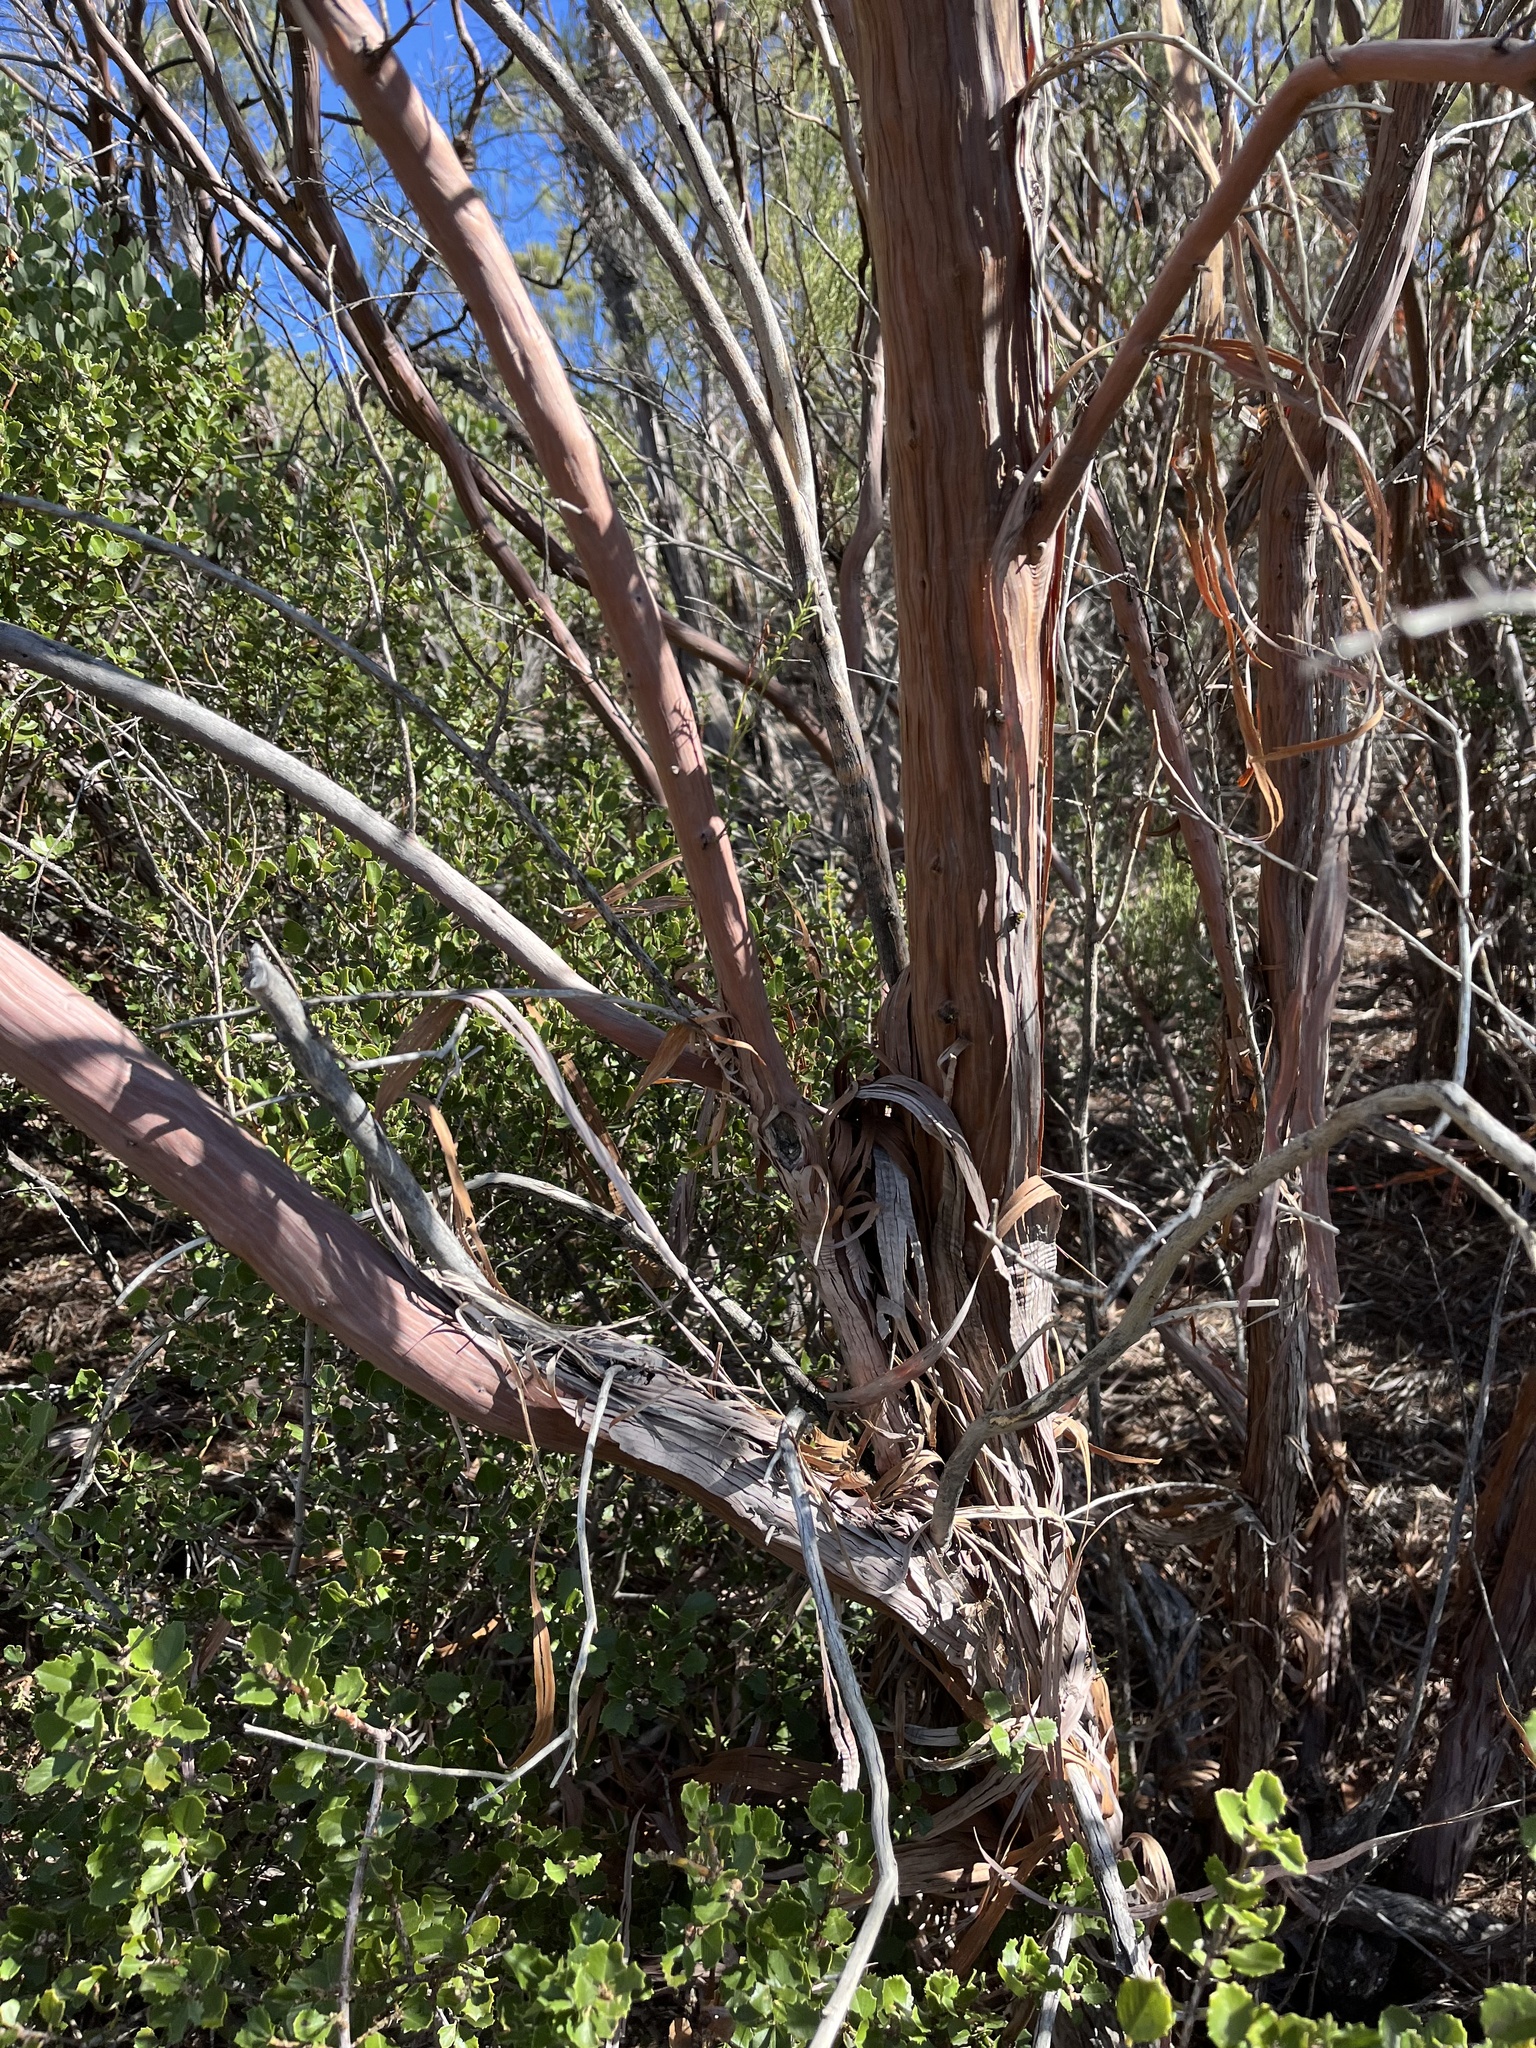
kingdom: Plantae
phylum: Tracheophyta
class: Magnoliopsida
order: Rosales
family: Rosaceae
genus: Adenostoma
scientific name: Adenostoma sparsifolium
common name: Red shank
